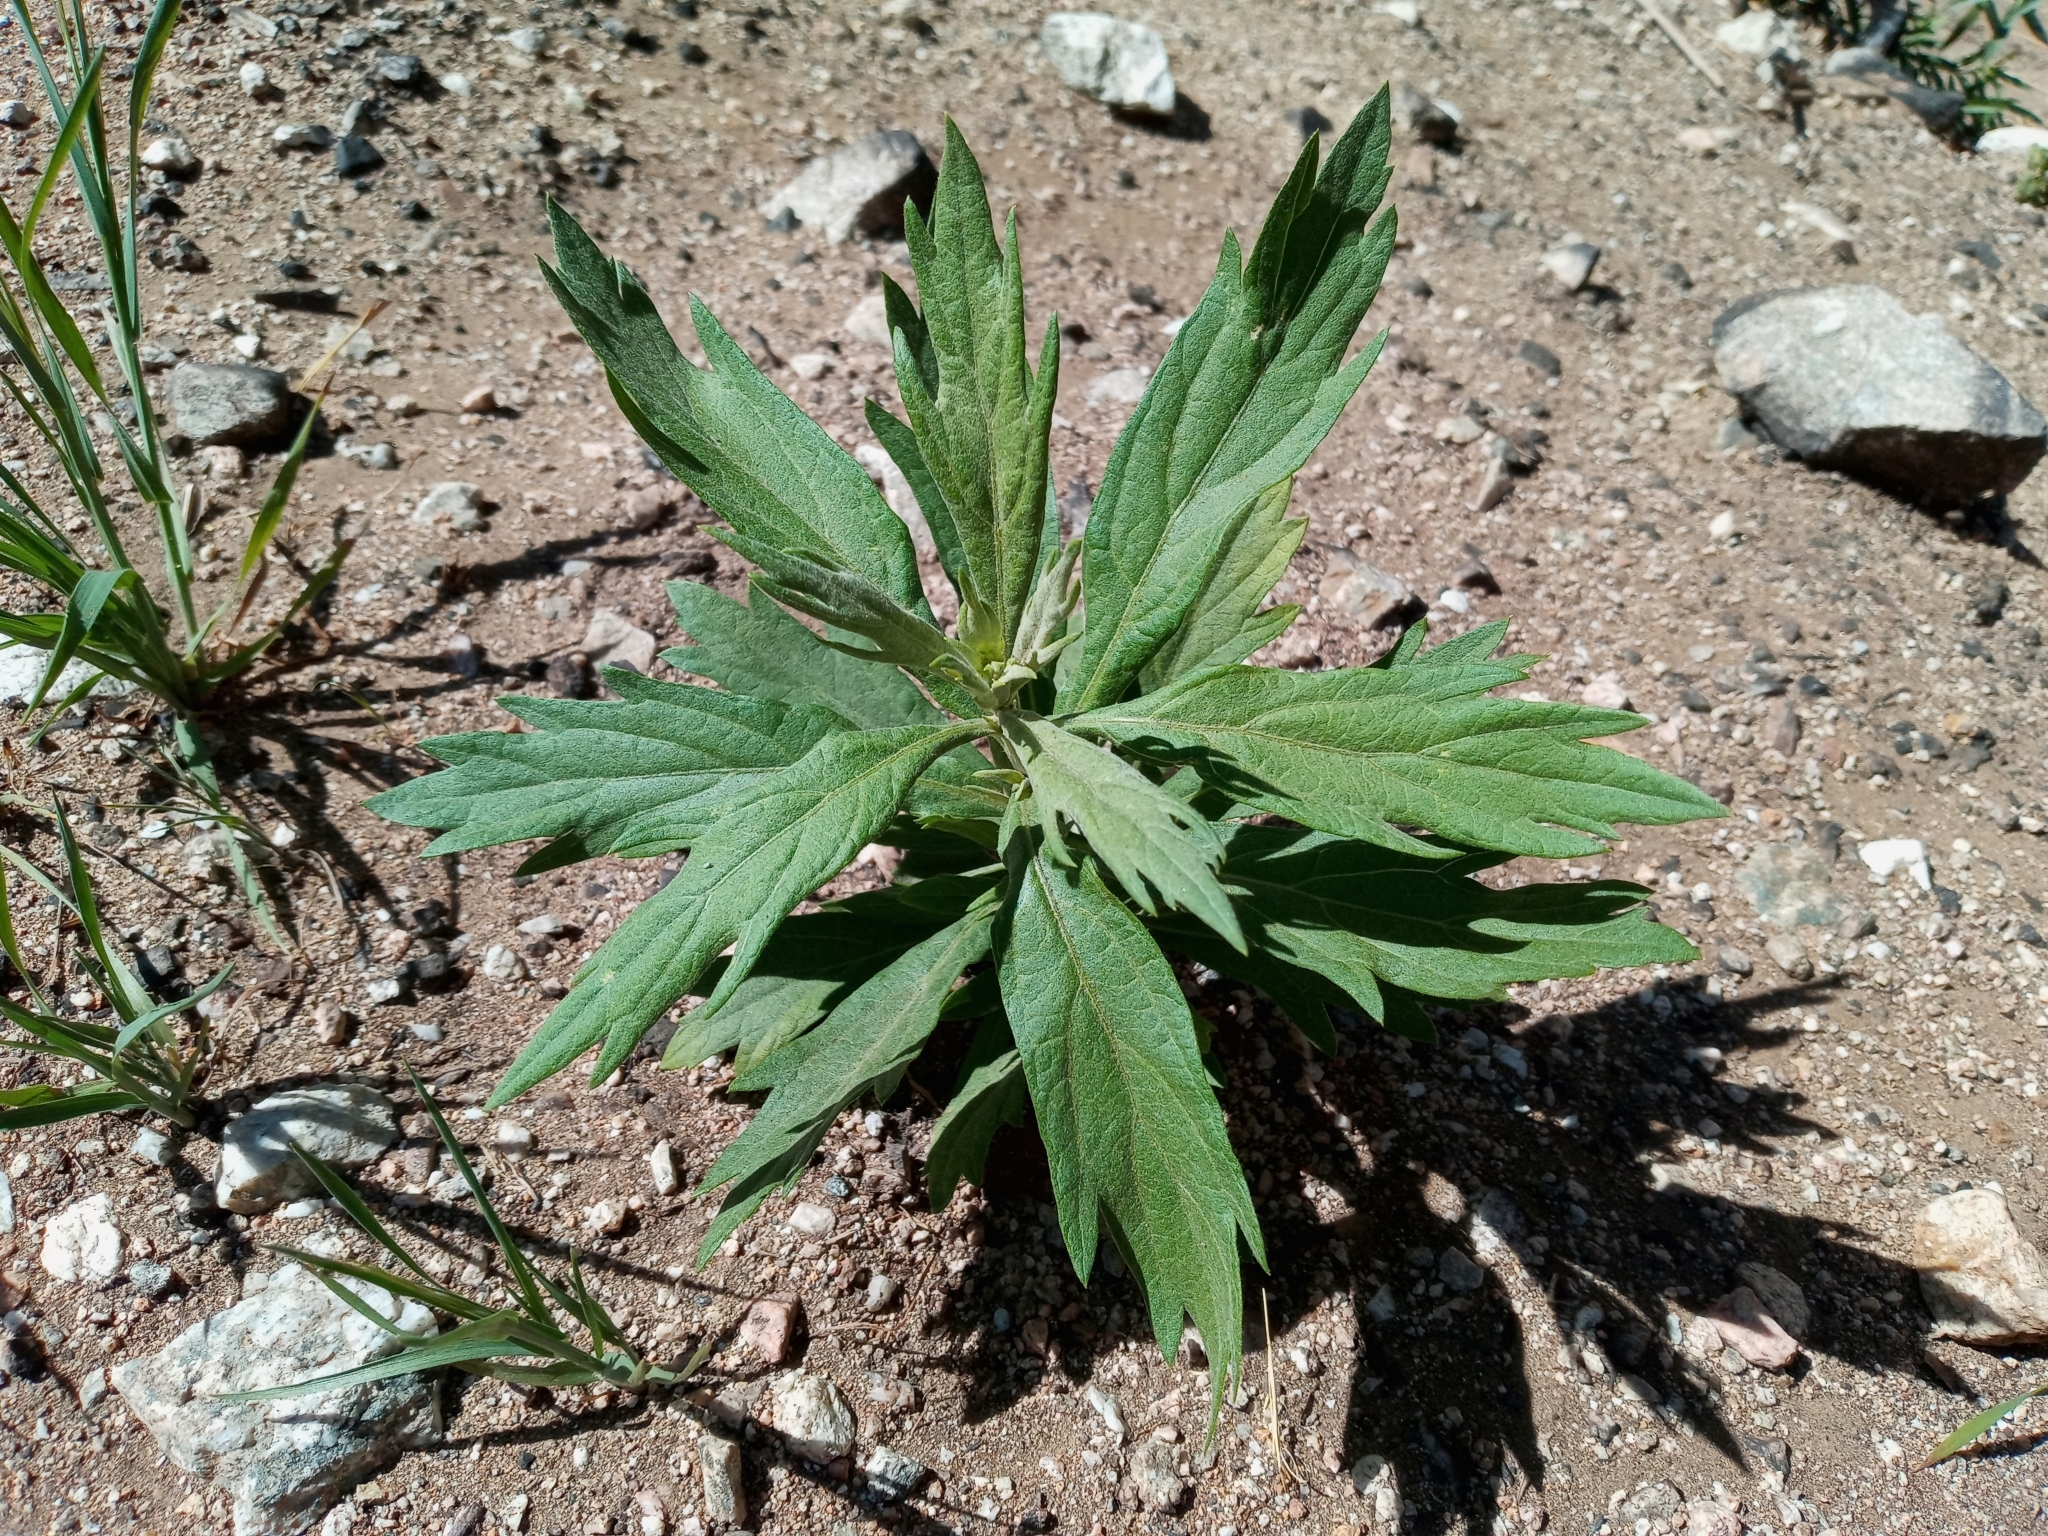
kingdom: Plantae
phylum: Tracheophyta
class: Magnoliopsida
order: Asterales
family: Asteraceae
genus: Artemisia
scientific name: Artemisia douglasiana
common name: Northwest mugwort
